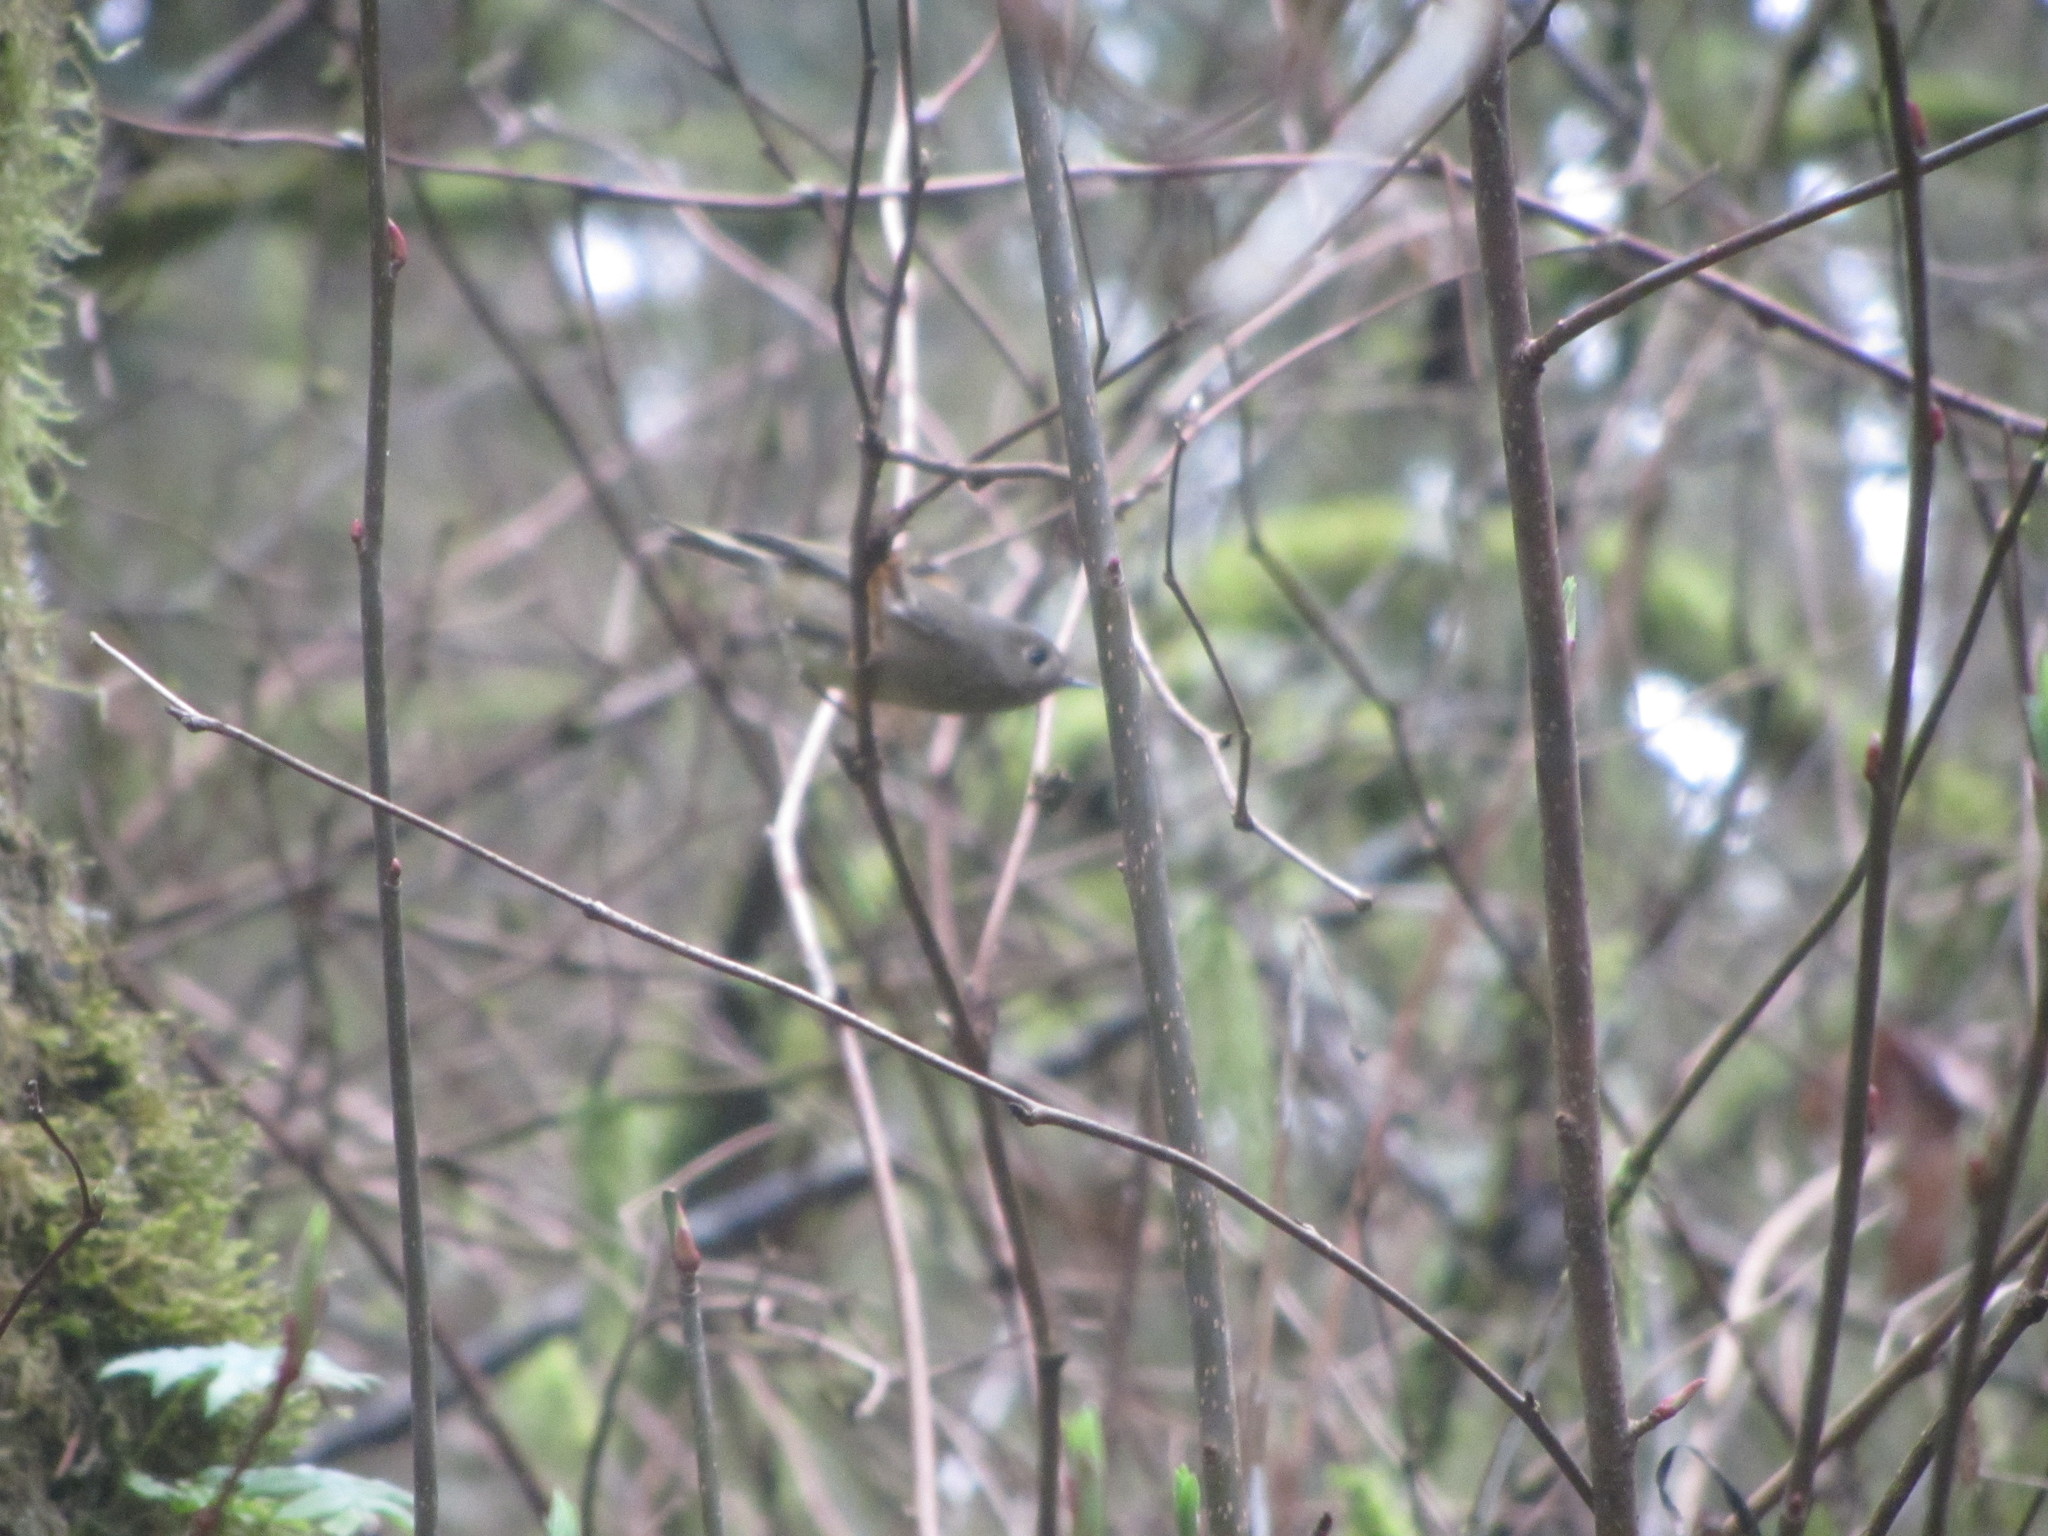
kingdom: Animalia
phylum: Chordata
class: Aves
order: Passeriformes
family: Regulidae
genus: Regulus
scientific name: Regulus calendula
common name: Ruby-crowned kinglet
